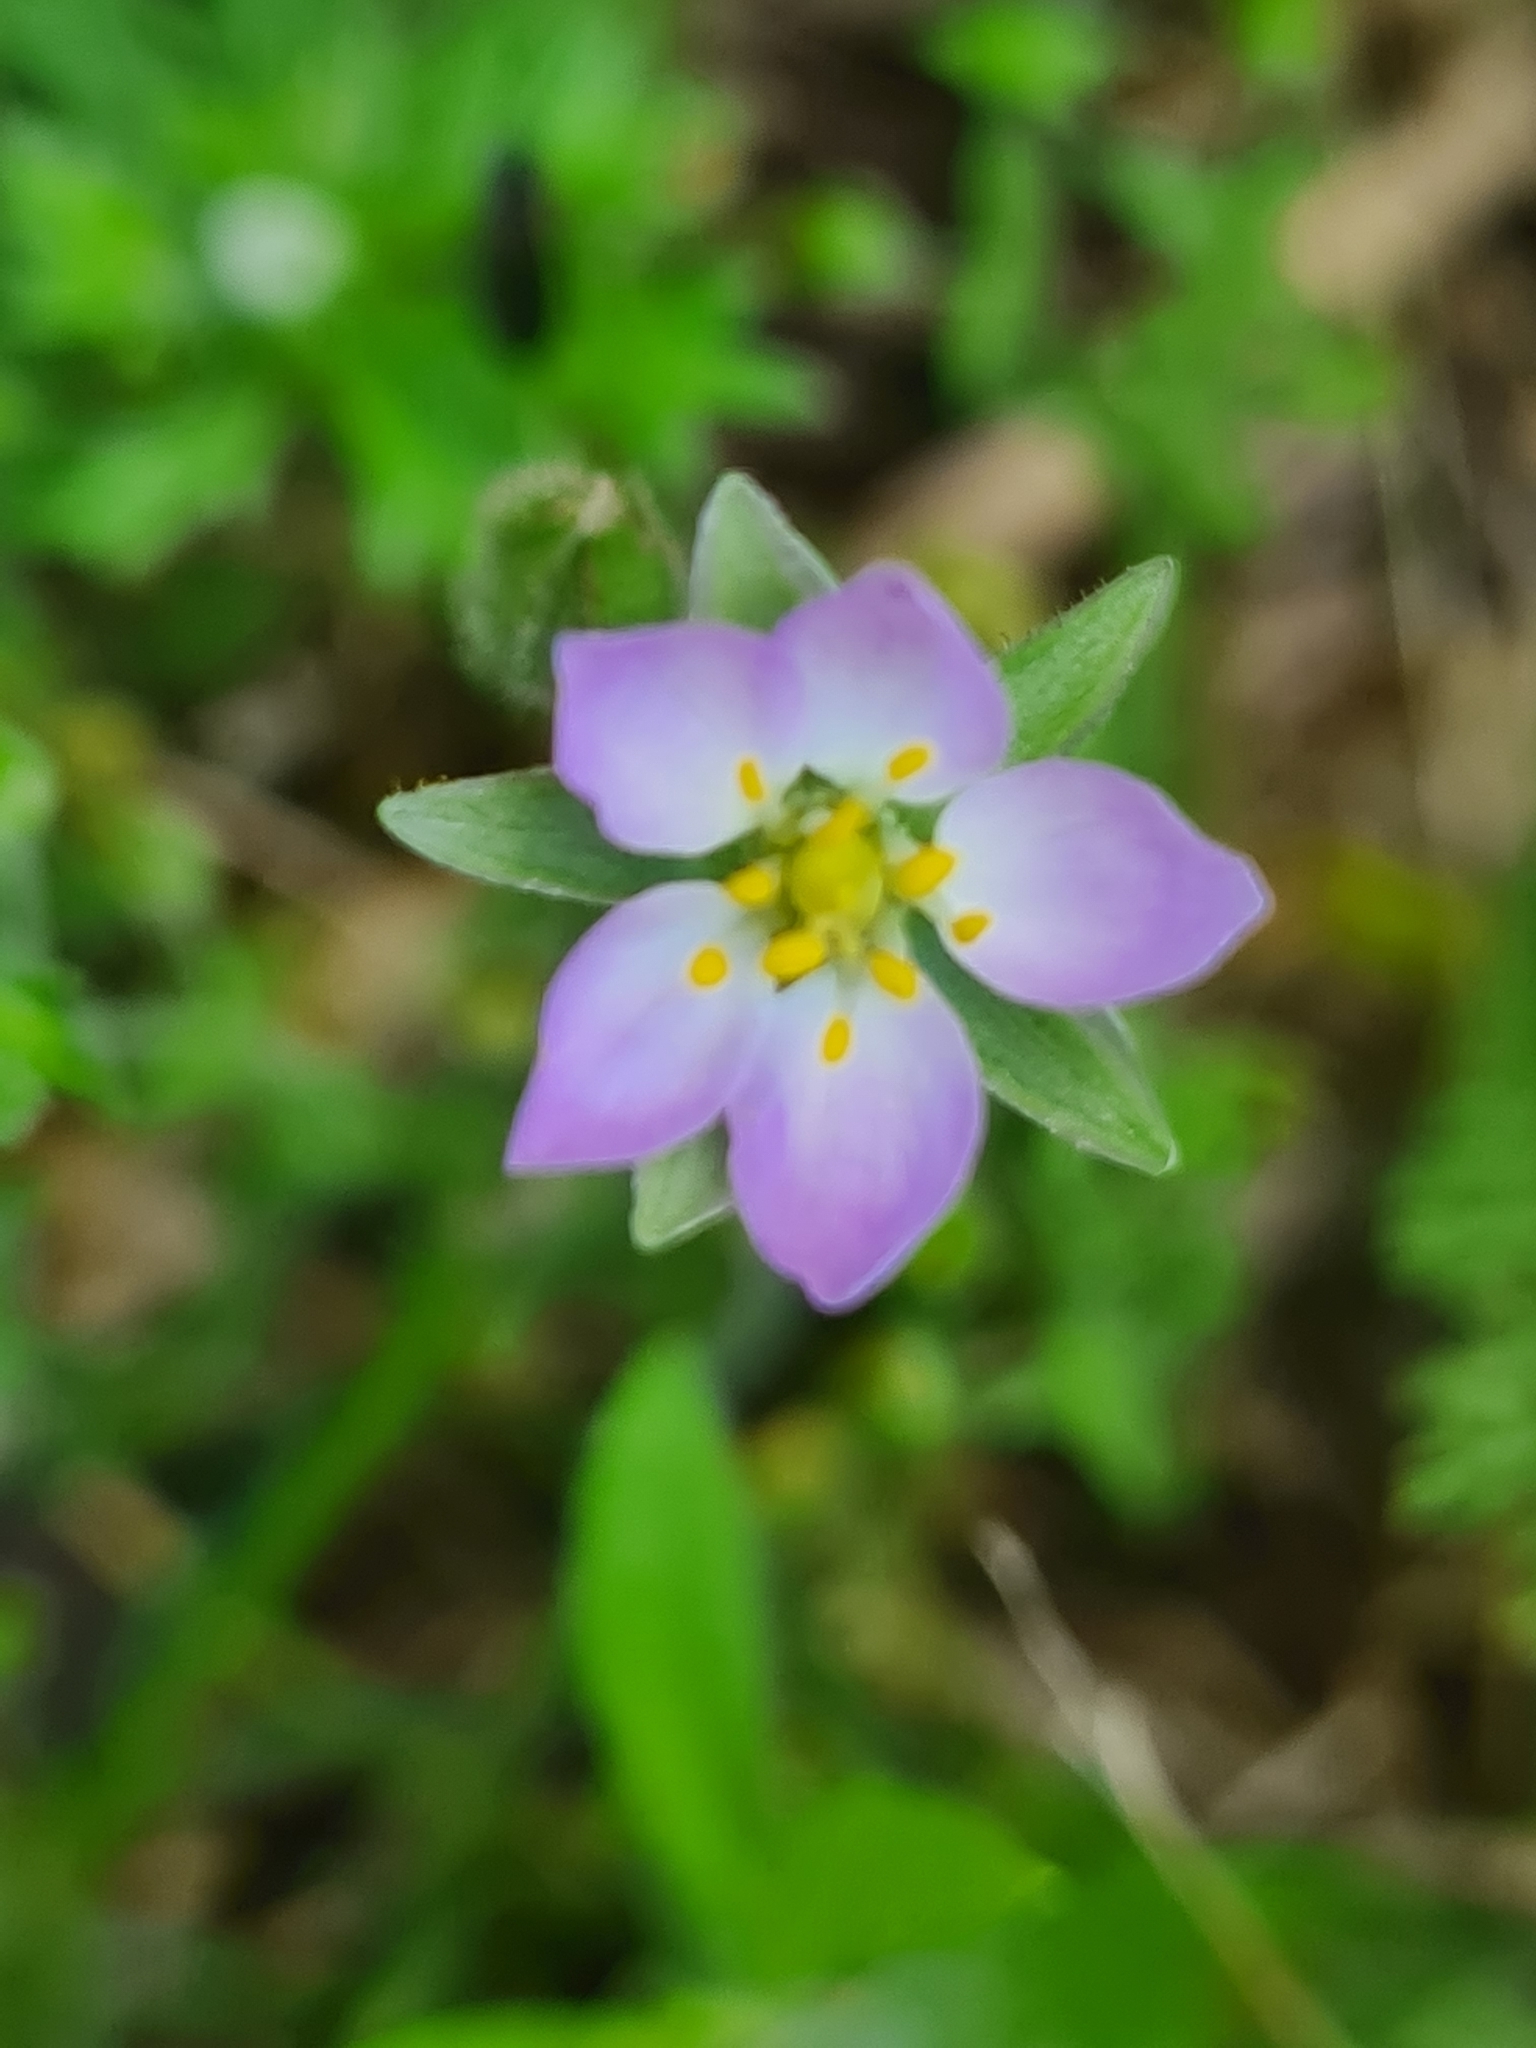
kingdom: Plantae
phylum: Tracheophyta
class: Magnoliopsida
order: Caryophyllales
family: Caryophyllaceae
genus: Spergularia
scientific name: Spergularia media
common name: Greater sea-spurrey
